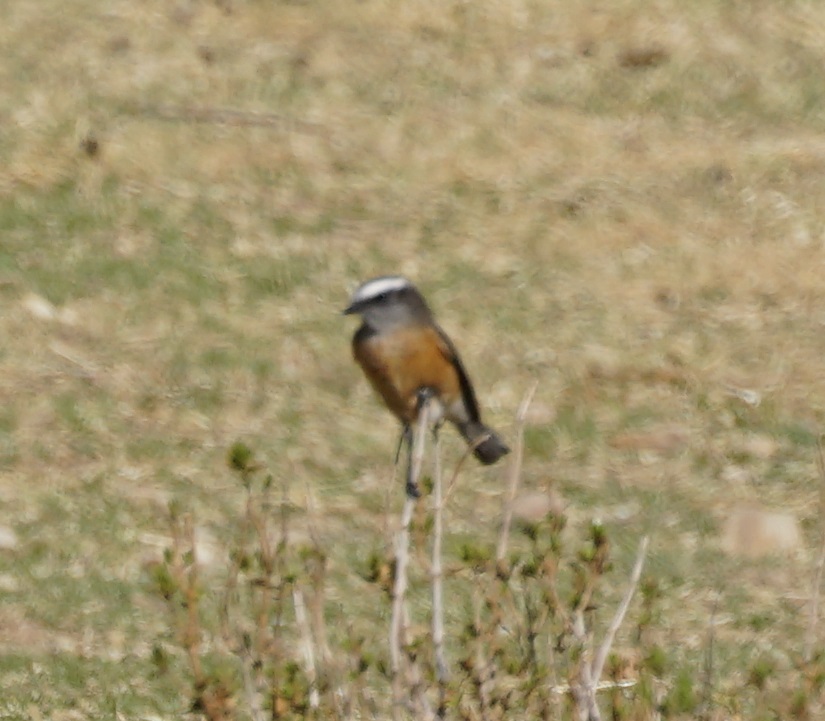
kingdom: Animalia
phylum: Chordata
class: Aves
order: Passeriformes
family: Tyrannidae
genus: Ochthoeca
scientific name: Ochthoeca oenanthoides
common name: D'orbigny's chat-tyrant
